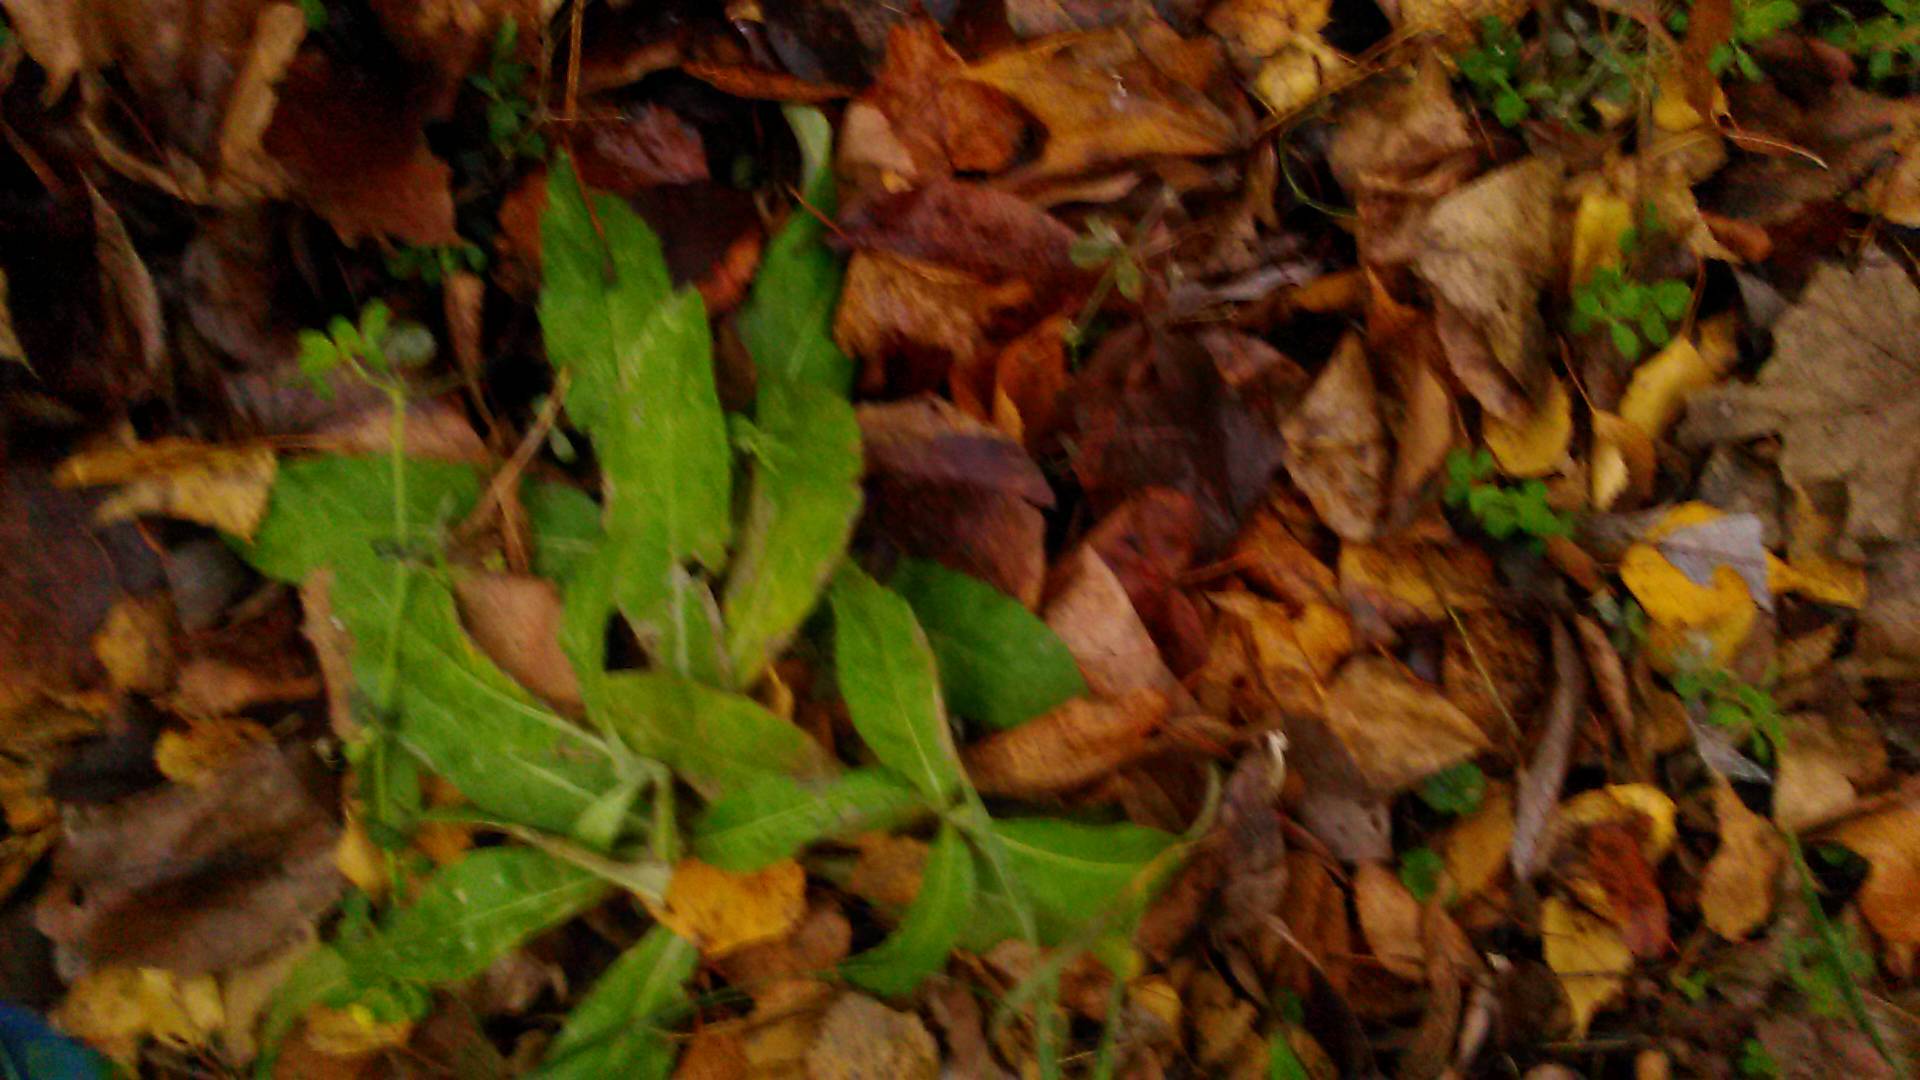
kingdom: Plantae
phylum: Tracheophyta
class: Magnoliopsida
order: Asterales
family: Asteraceae
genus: Cirsium
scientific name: Cirsium arvense
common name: Creeping thistle
